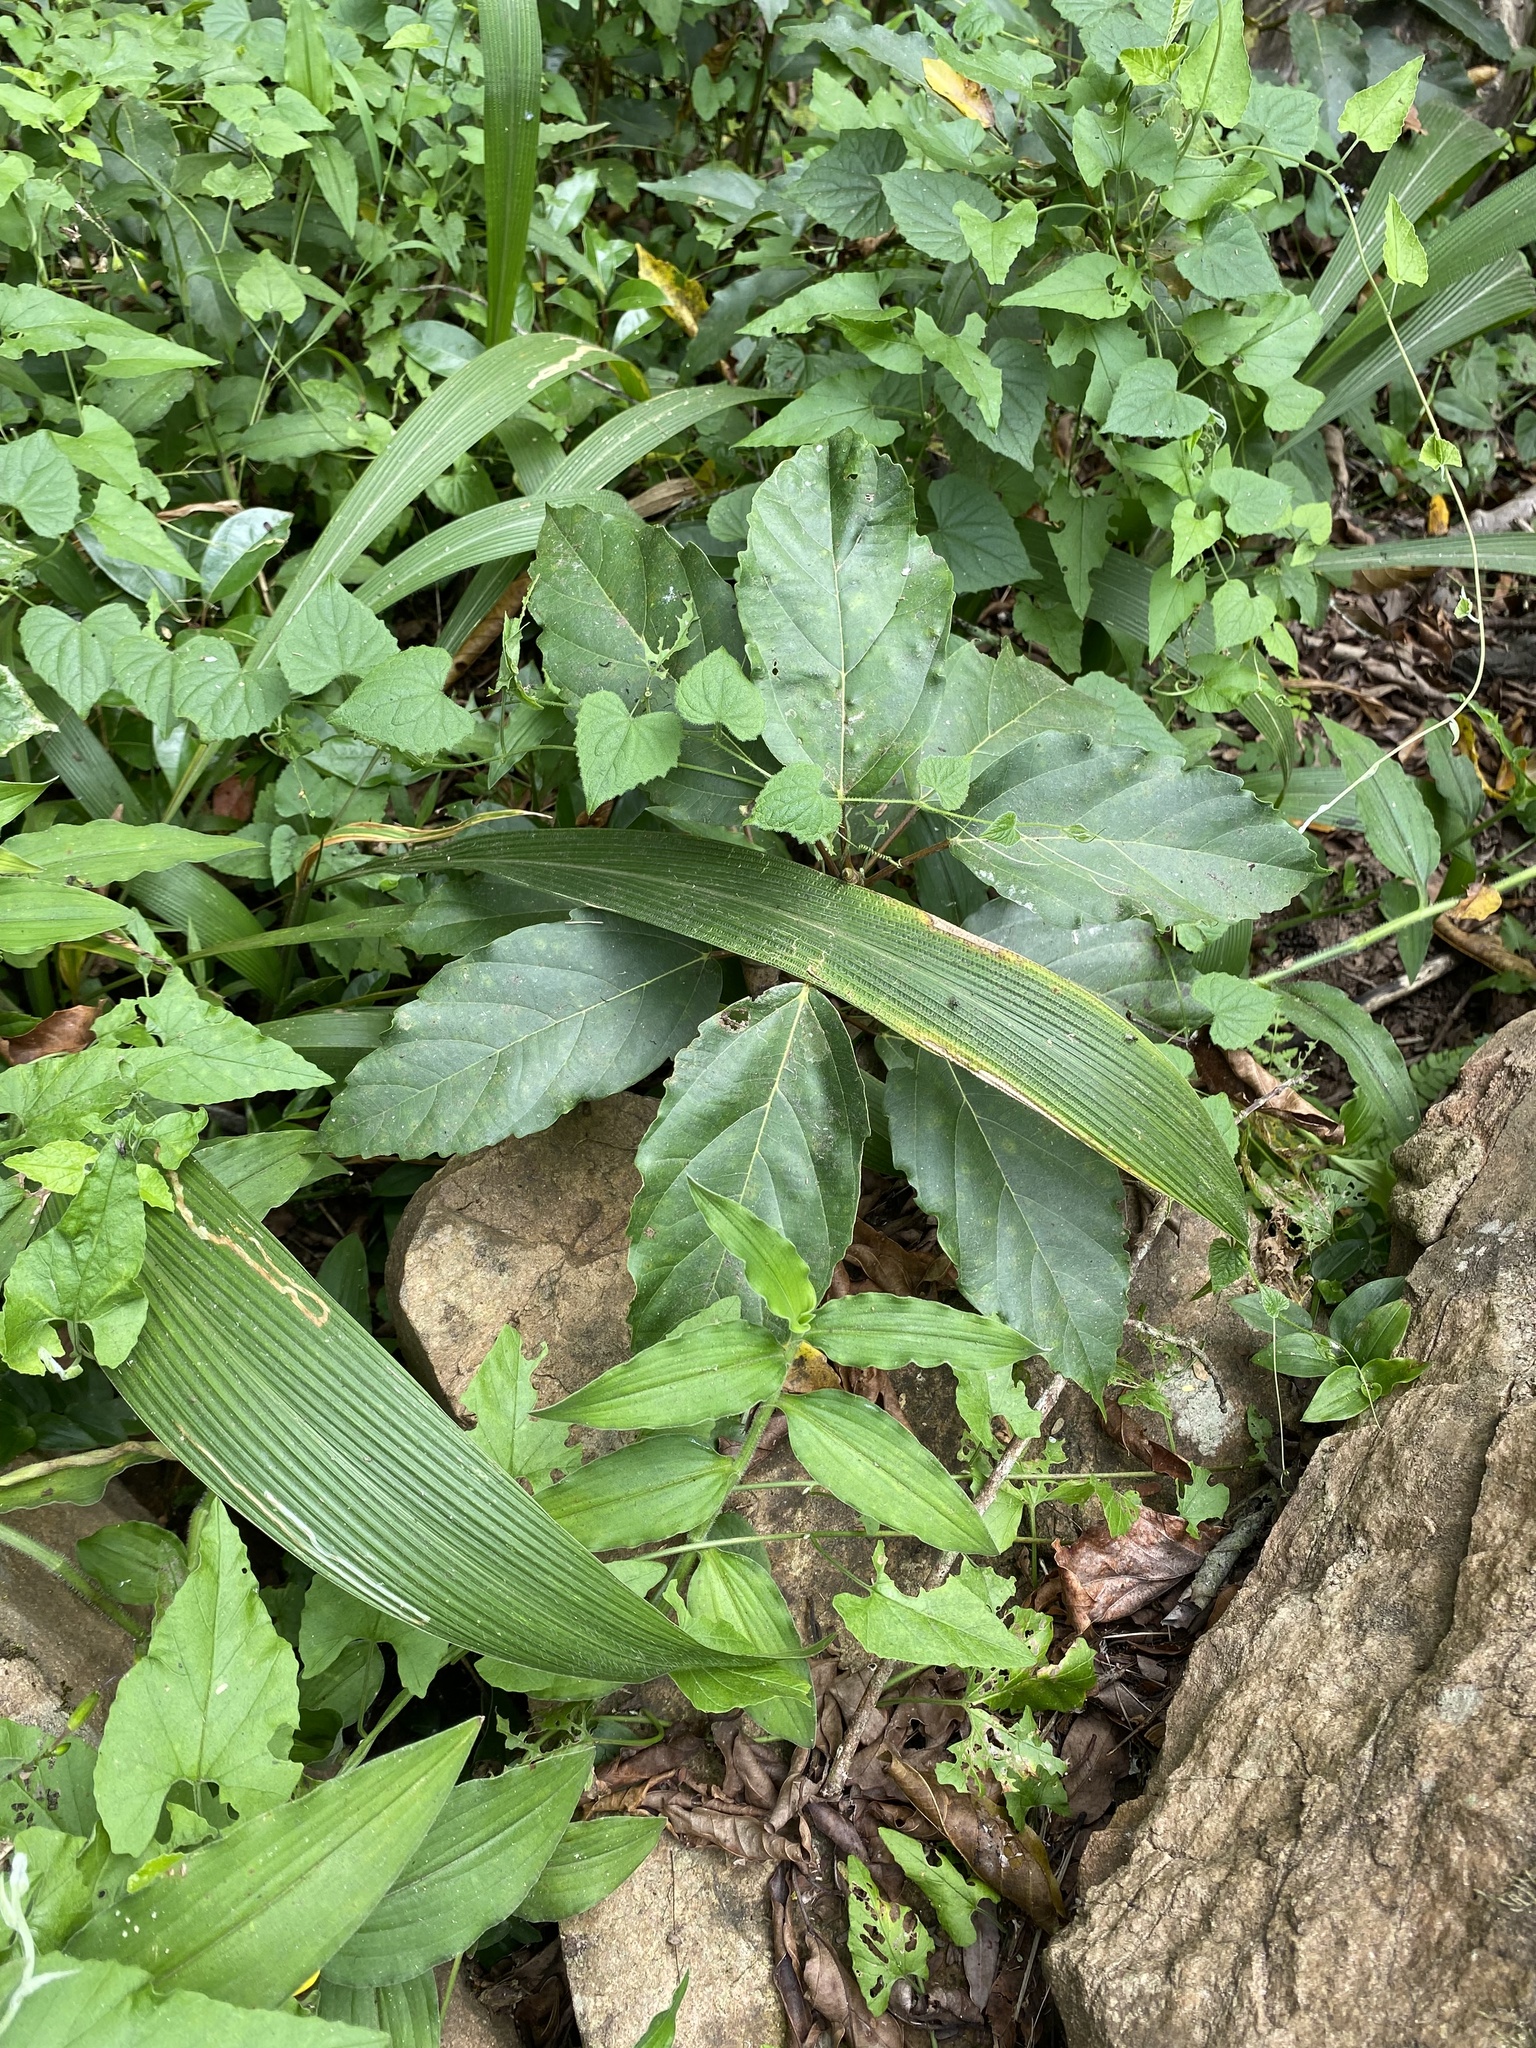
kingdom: Plantae
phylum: Tracheophyta
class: Magnoliopsida
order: Rosales
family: Moraceae
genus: Ficus
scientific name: Ficus sur
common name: Cape fig
